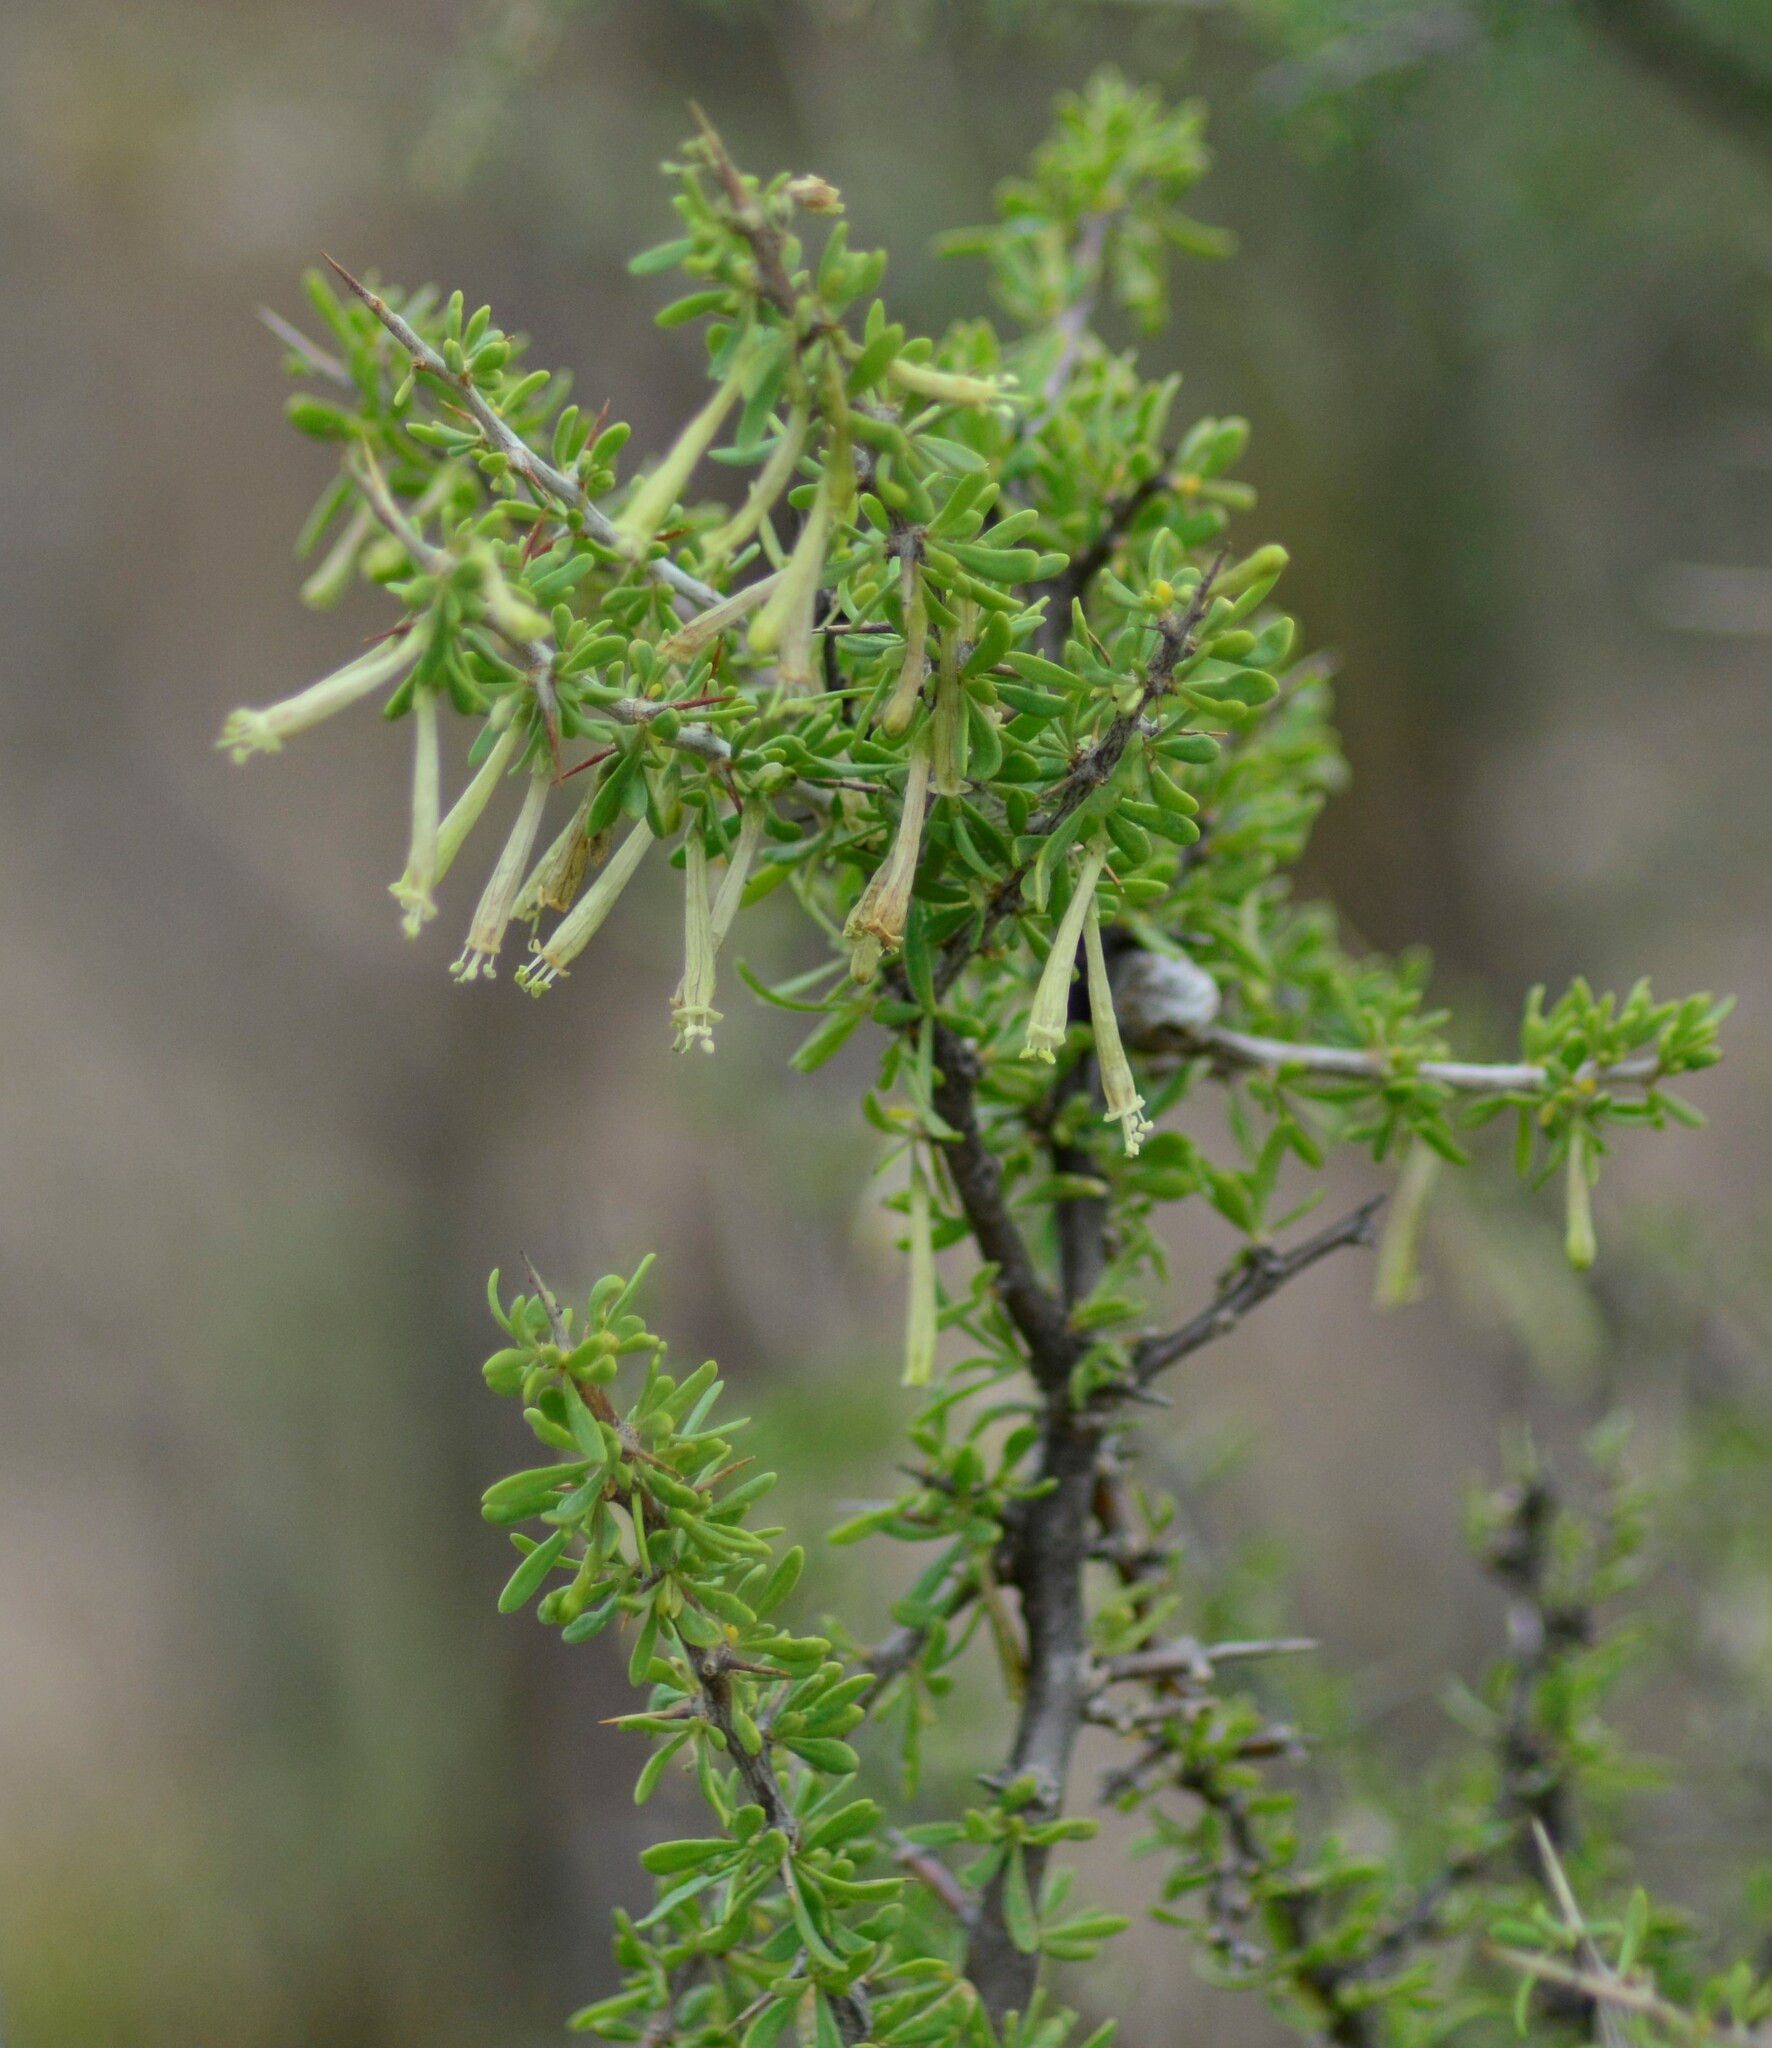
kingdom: Plantae
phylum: Tracheophyta
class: Magnoliopsida
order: Solanales
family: Solanaceae
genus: Lycium
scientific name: Lycium gilliesianum
